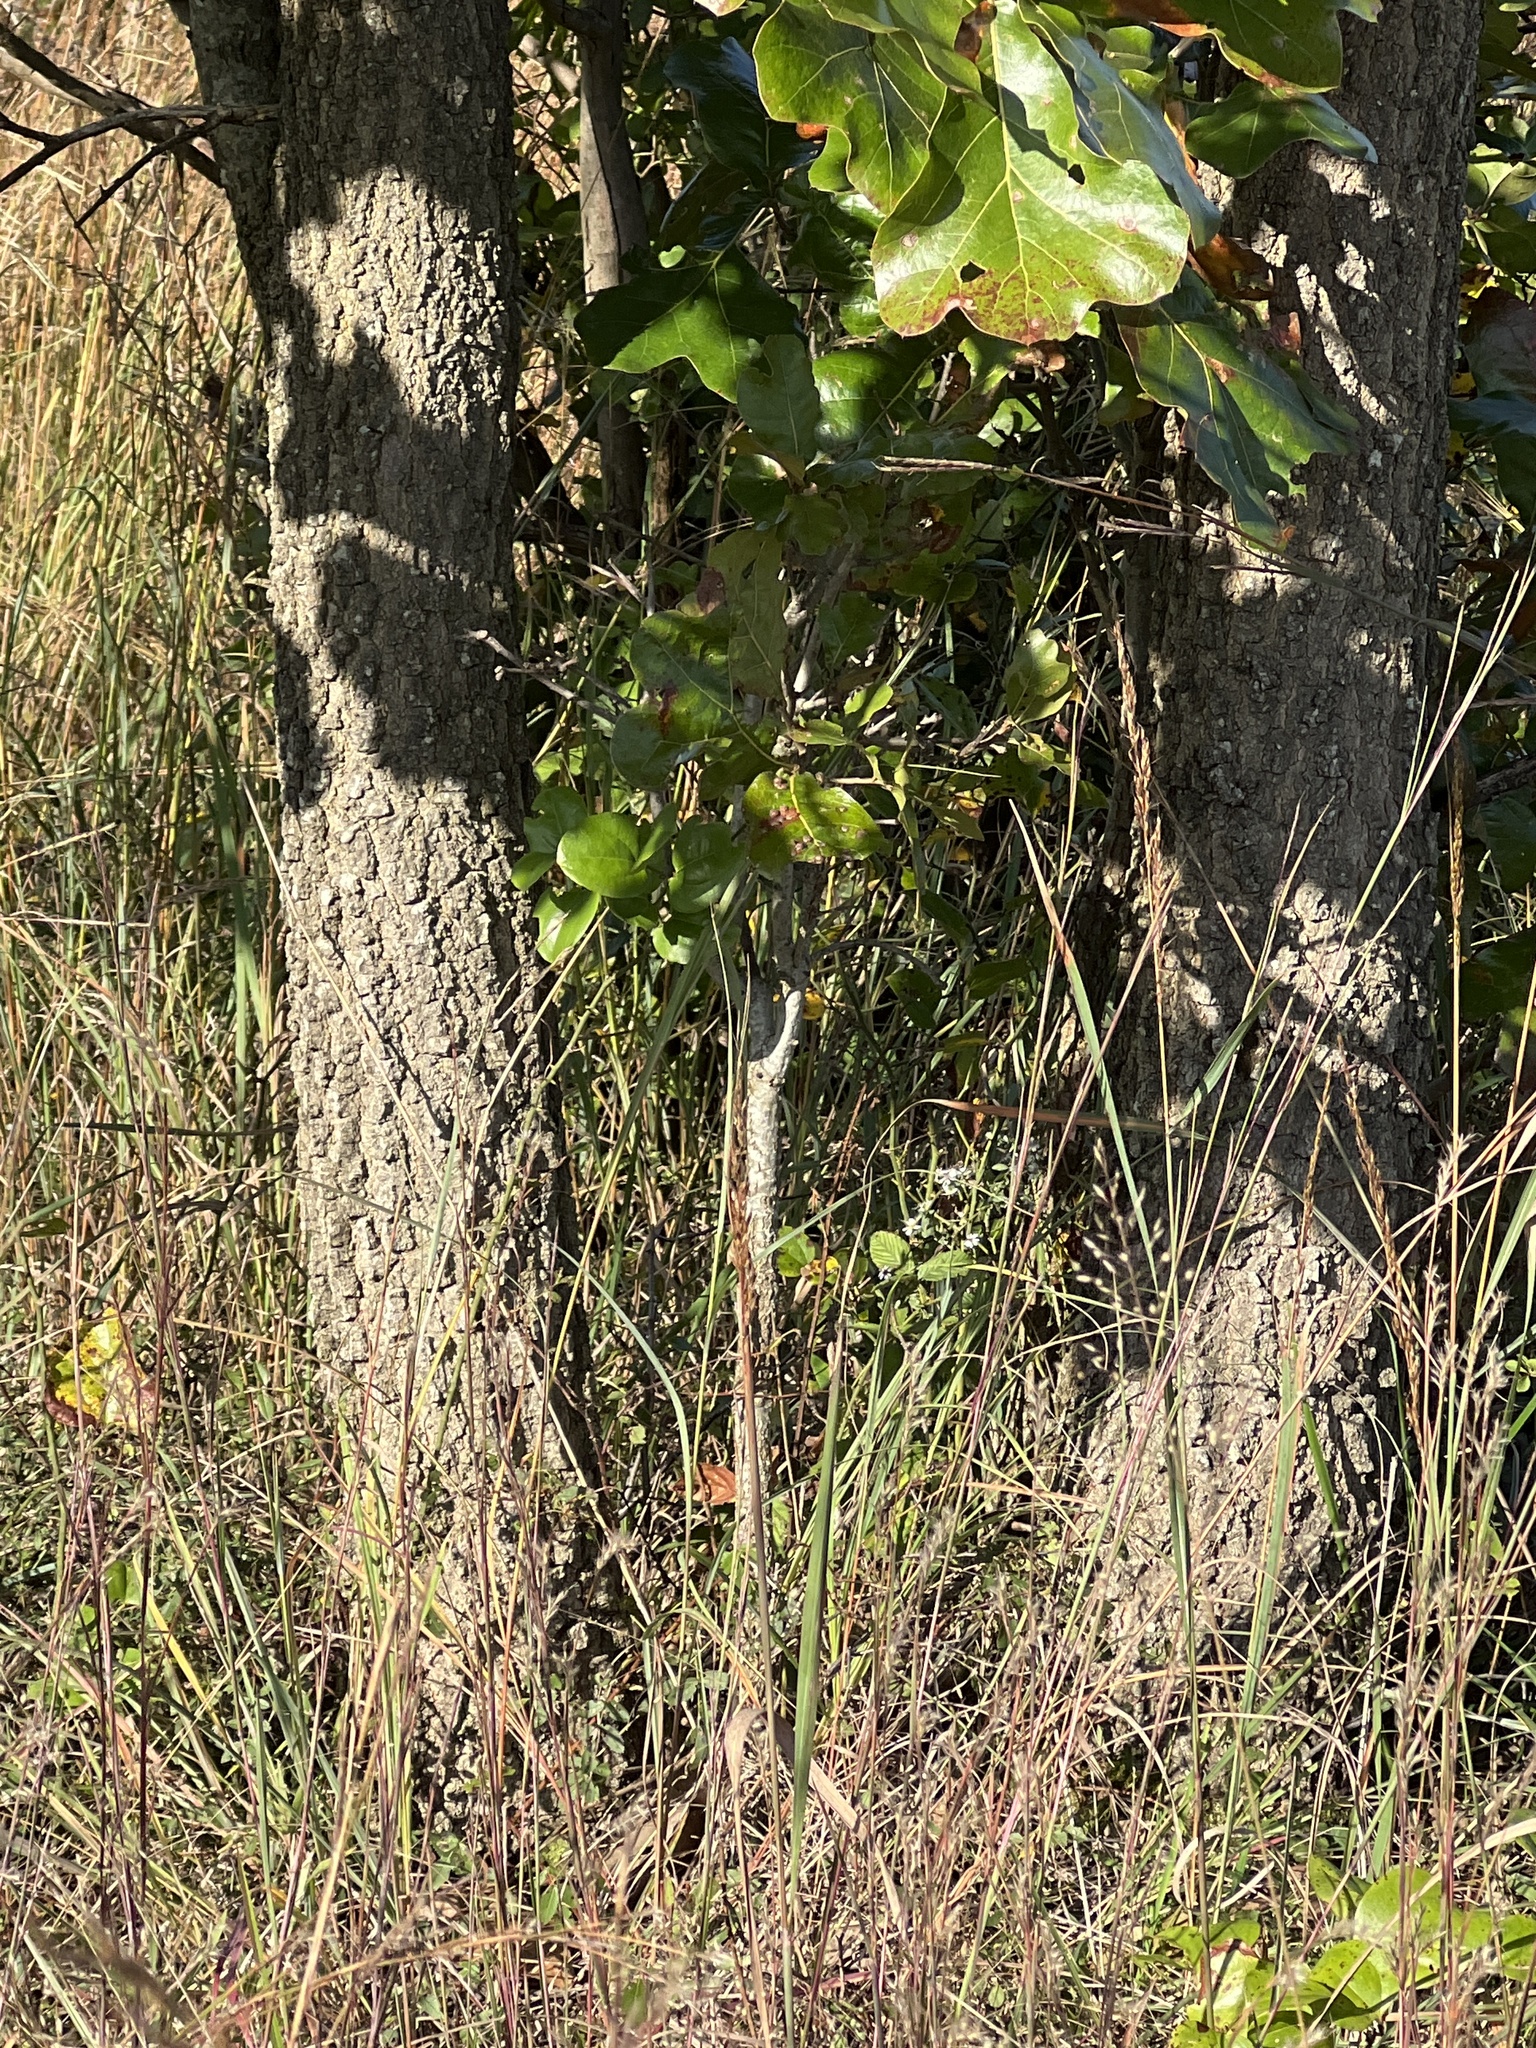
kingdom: Plantae
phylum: Tracheophyta
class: Magnoliopsida
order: Fagales
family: Fagaceae
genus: Quercus
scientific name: Quercus marilandica
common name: Blackjack oak
